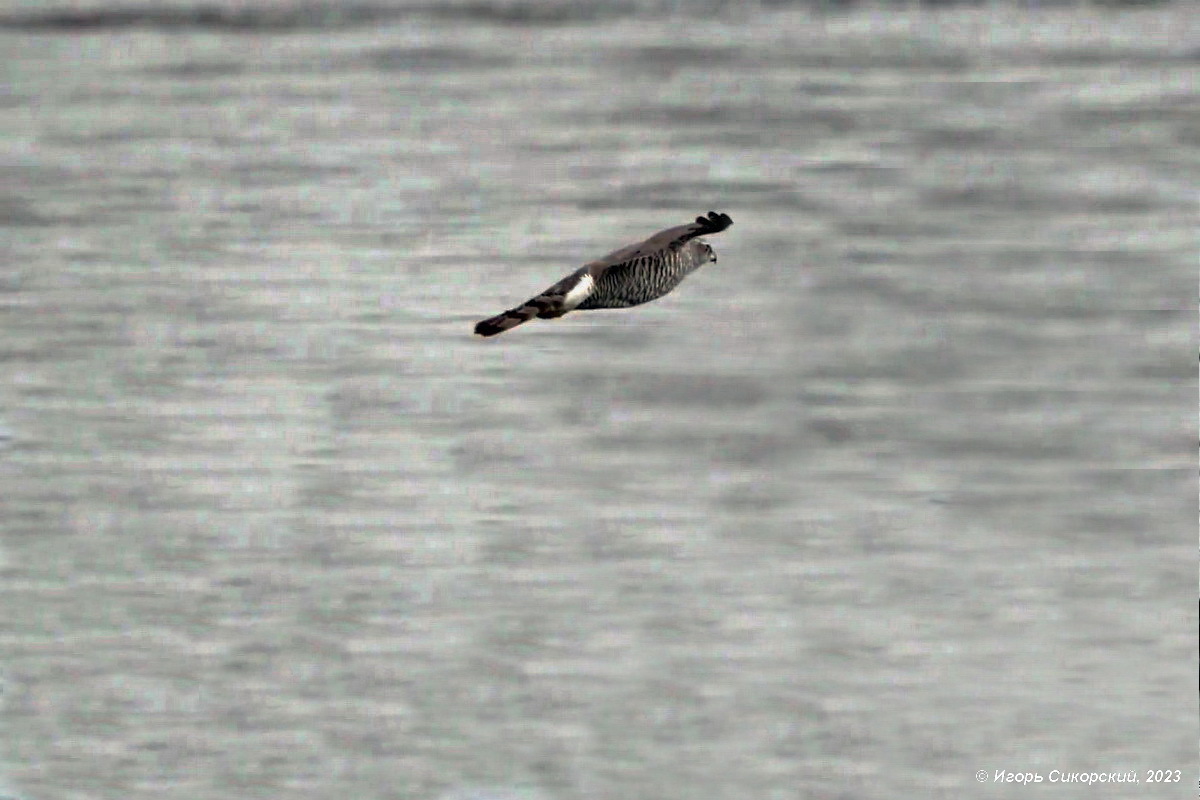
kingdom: Animalia
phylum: Chordata
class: Aves
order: Accipitriformes
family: Accipitridae
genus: Accipiter
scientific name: Accipiter gentilis
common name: Northern goshawk
